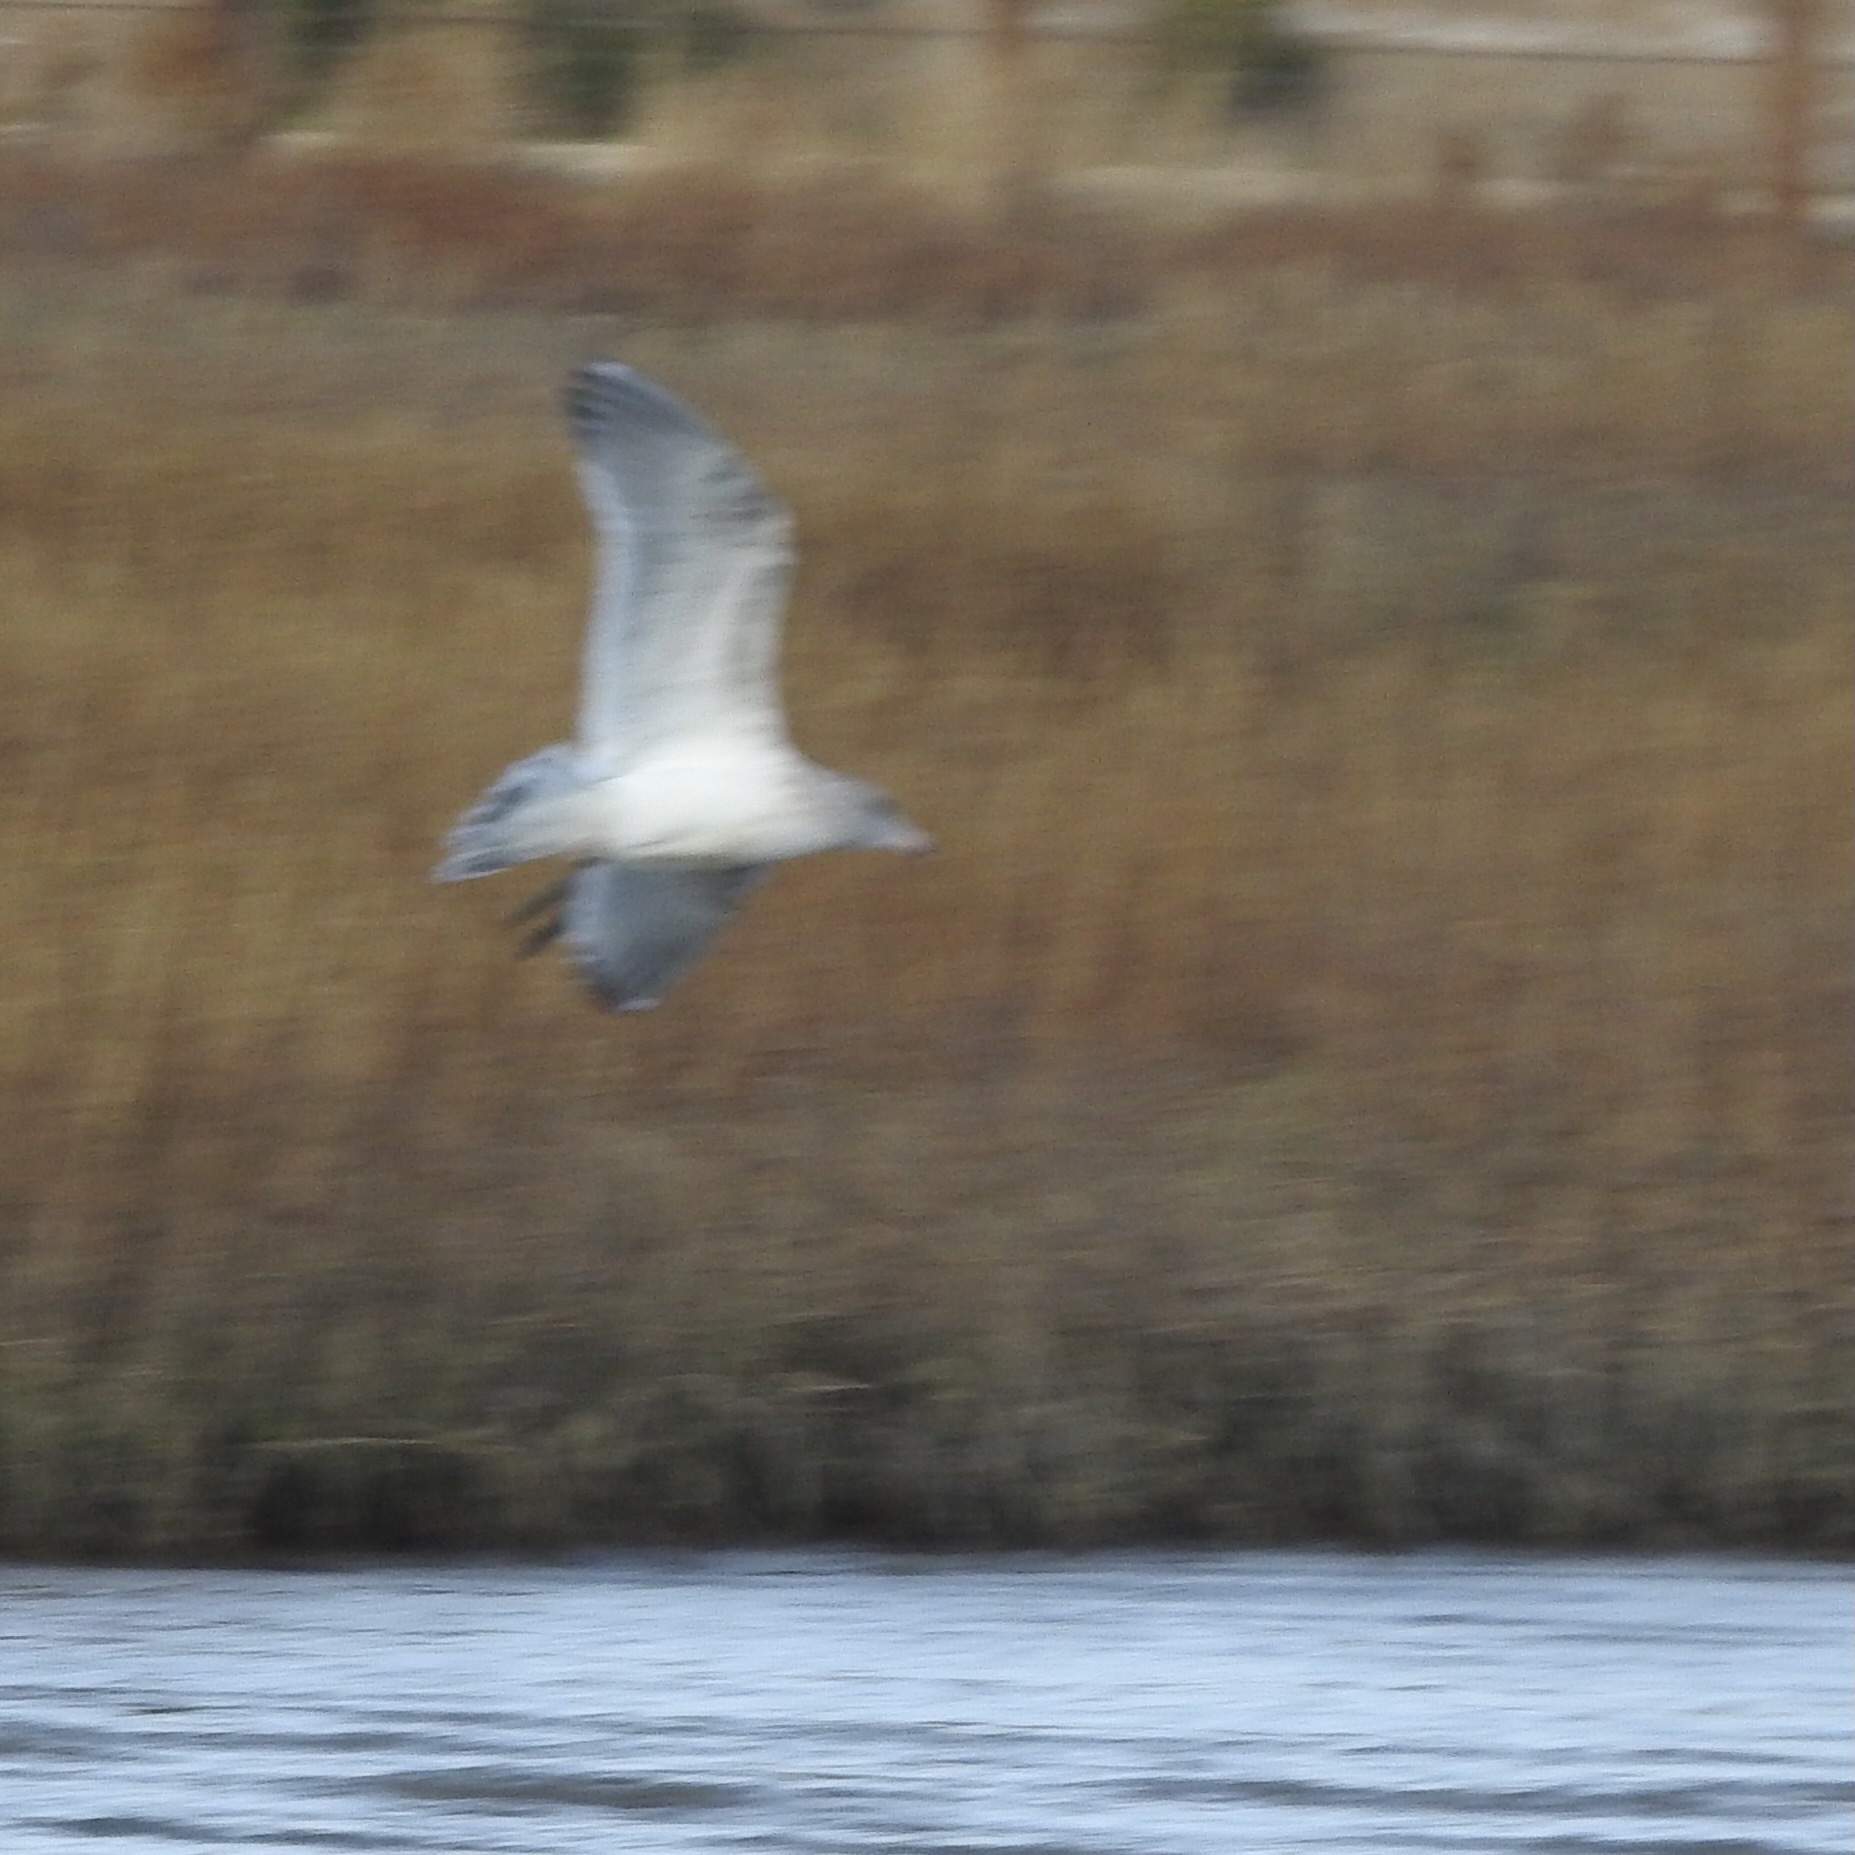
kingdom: Animalia
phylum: Chordata
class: Aves
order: Charadriiformes
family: Laridae
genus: Larus
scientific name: Larus
